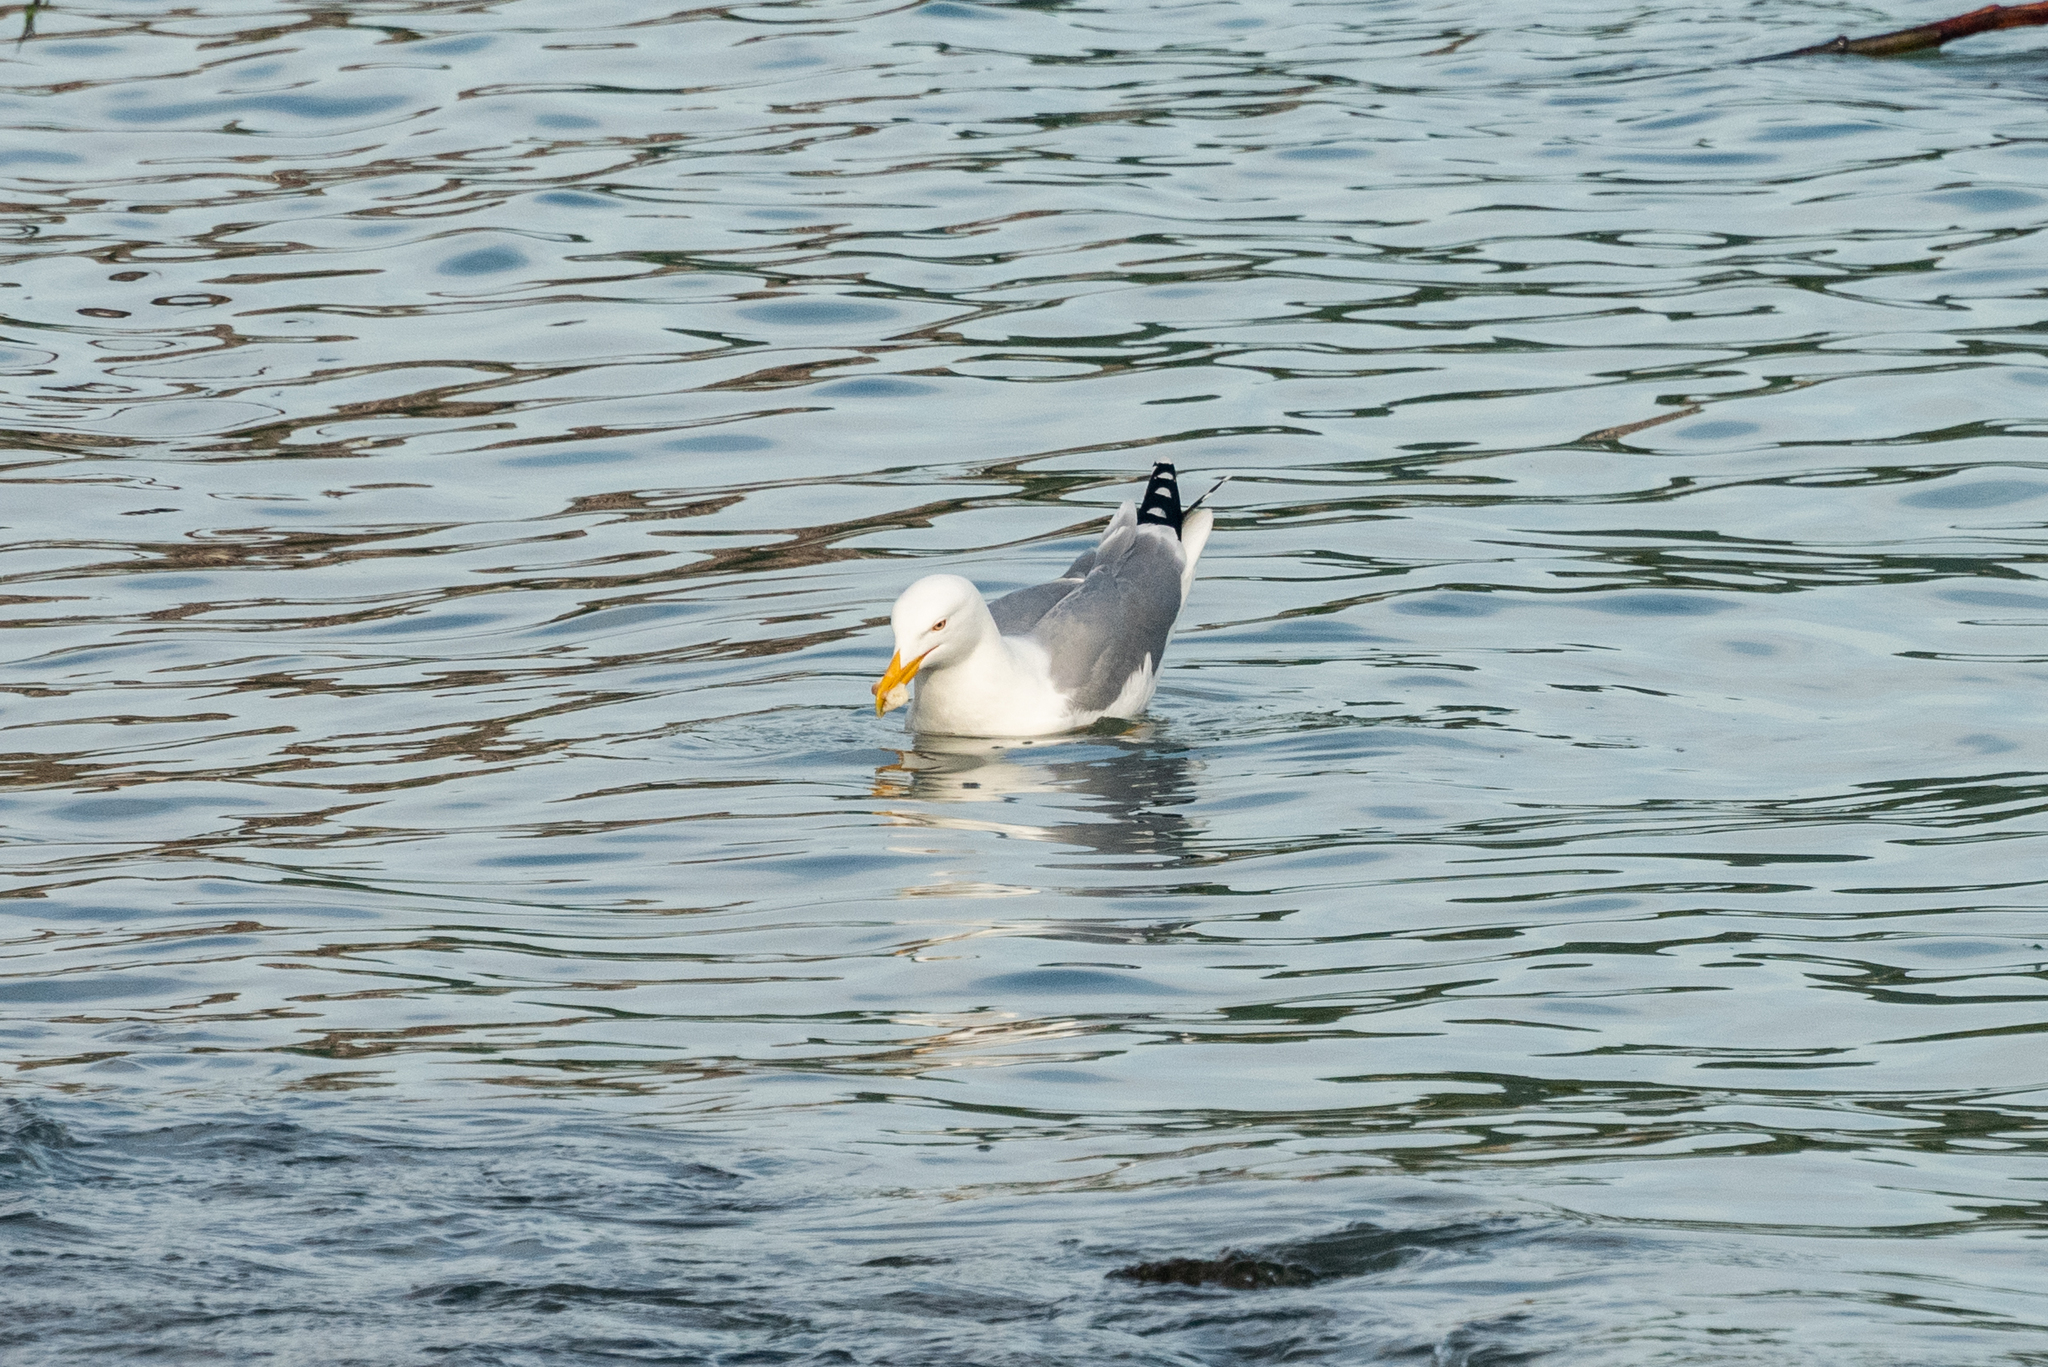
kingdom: Animalia
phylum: Chordata
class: Aves
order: Charadriiformes
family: Laridae
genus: Larus
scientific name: Larus michahellis
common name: Yellow-legged gull
